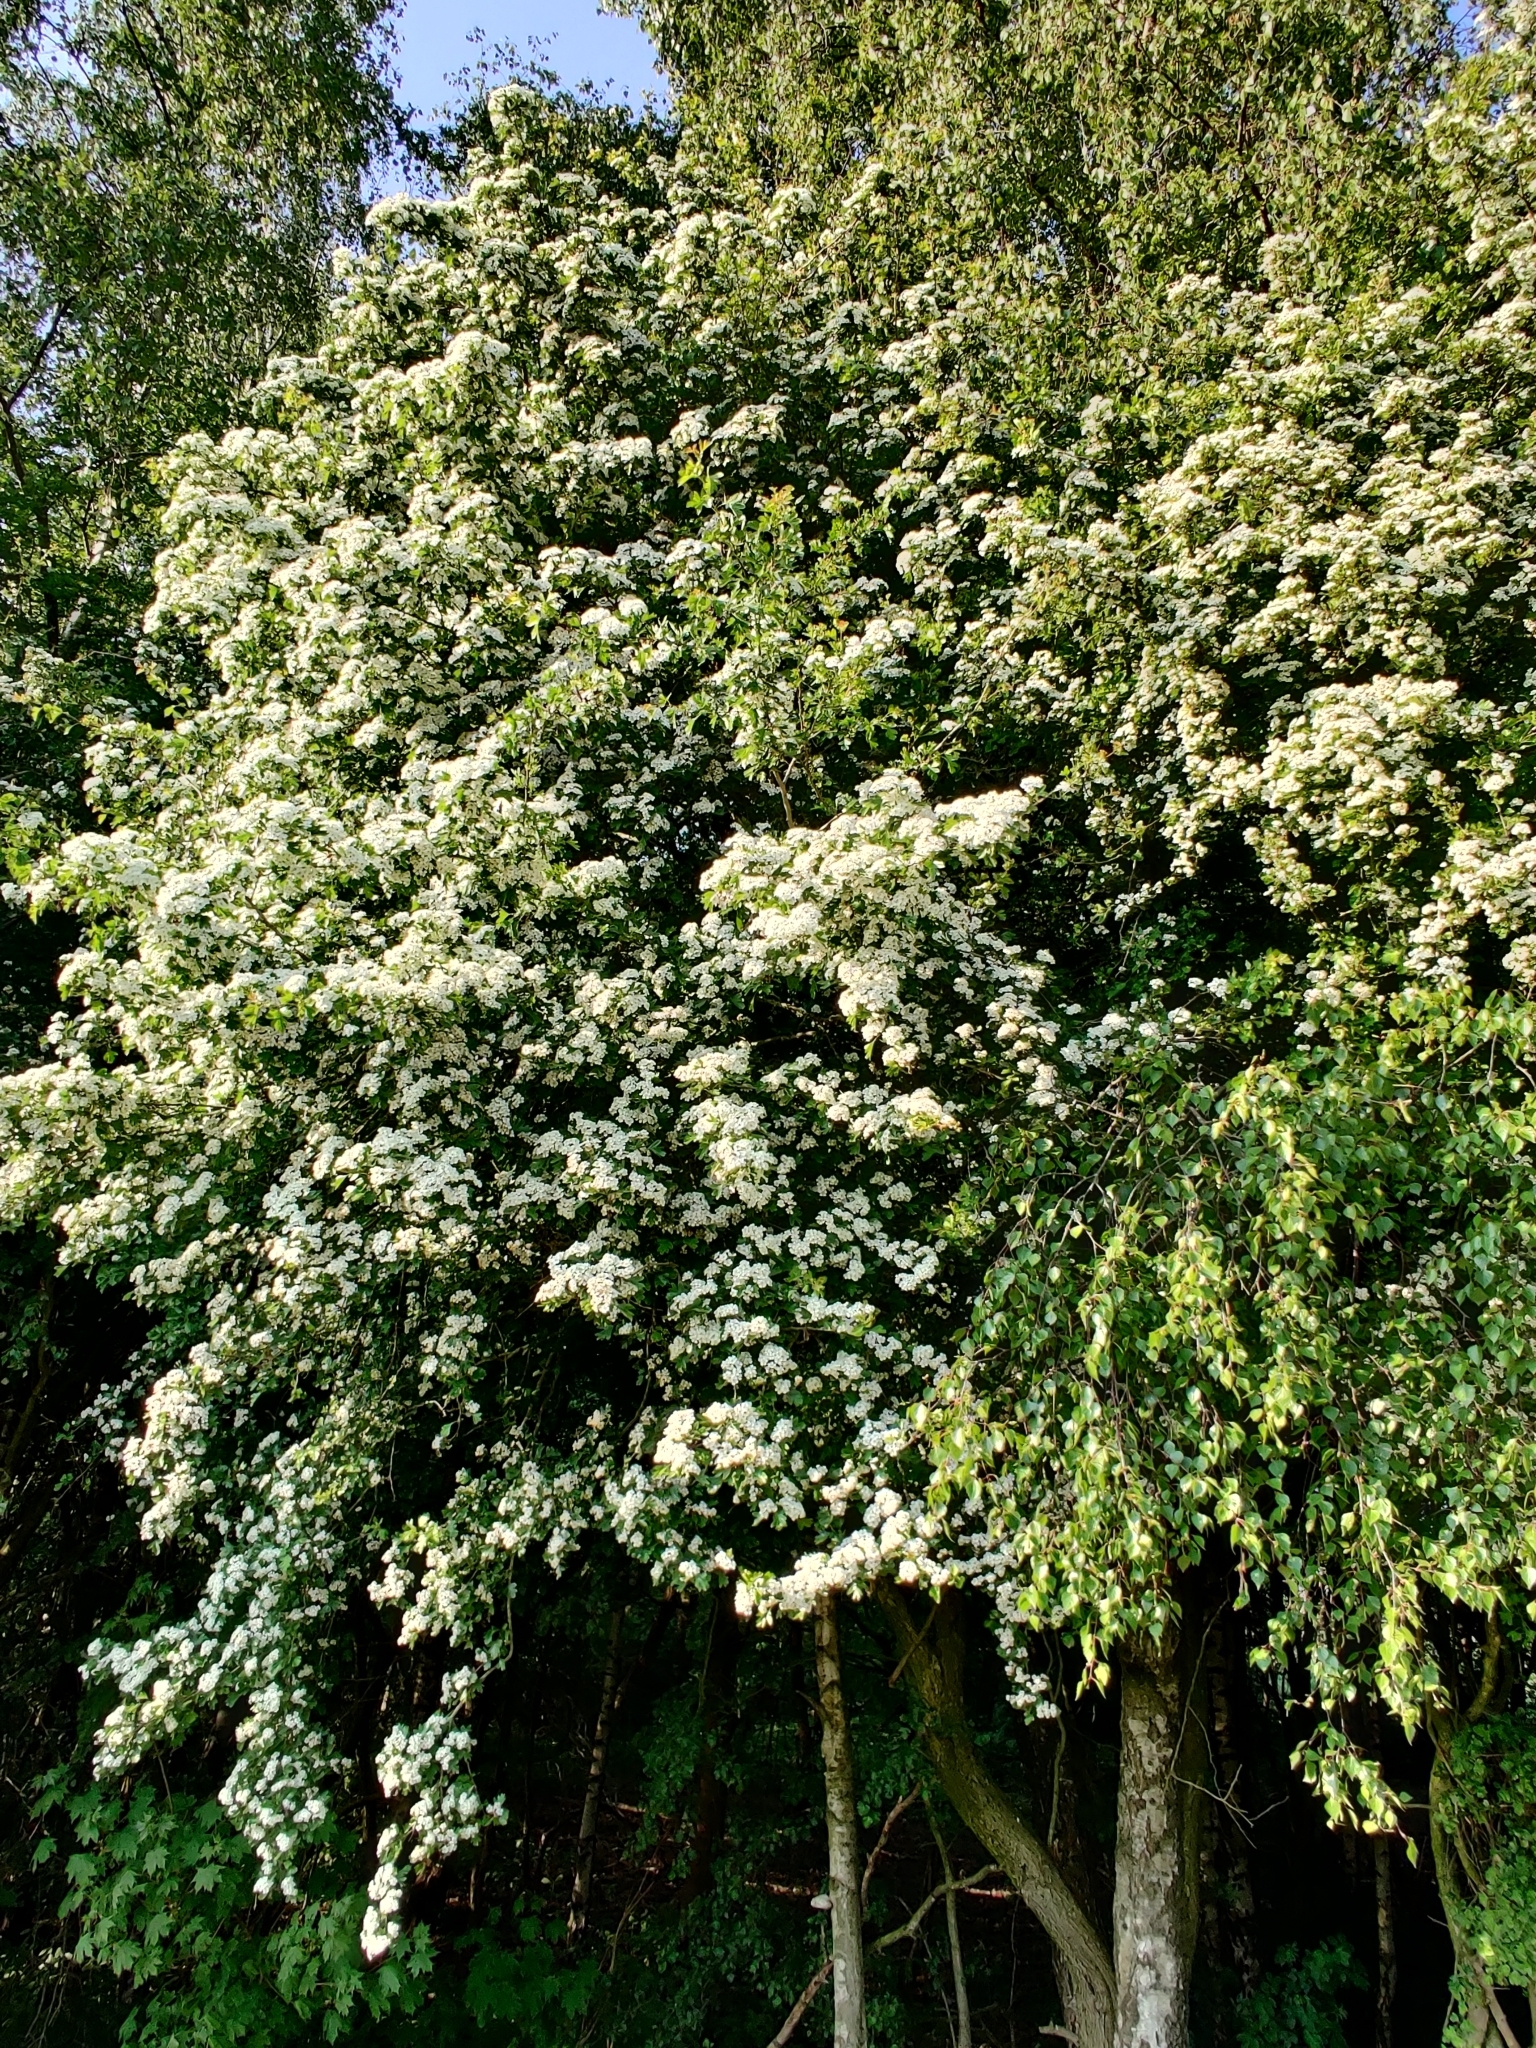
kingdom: Plantae
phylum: Tracheophyta
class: Magnoliopsida
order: Rosales
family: Rosaceae
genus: Crataegus
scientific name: Crataegus monogyna
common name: Hawthorn
